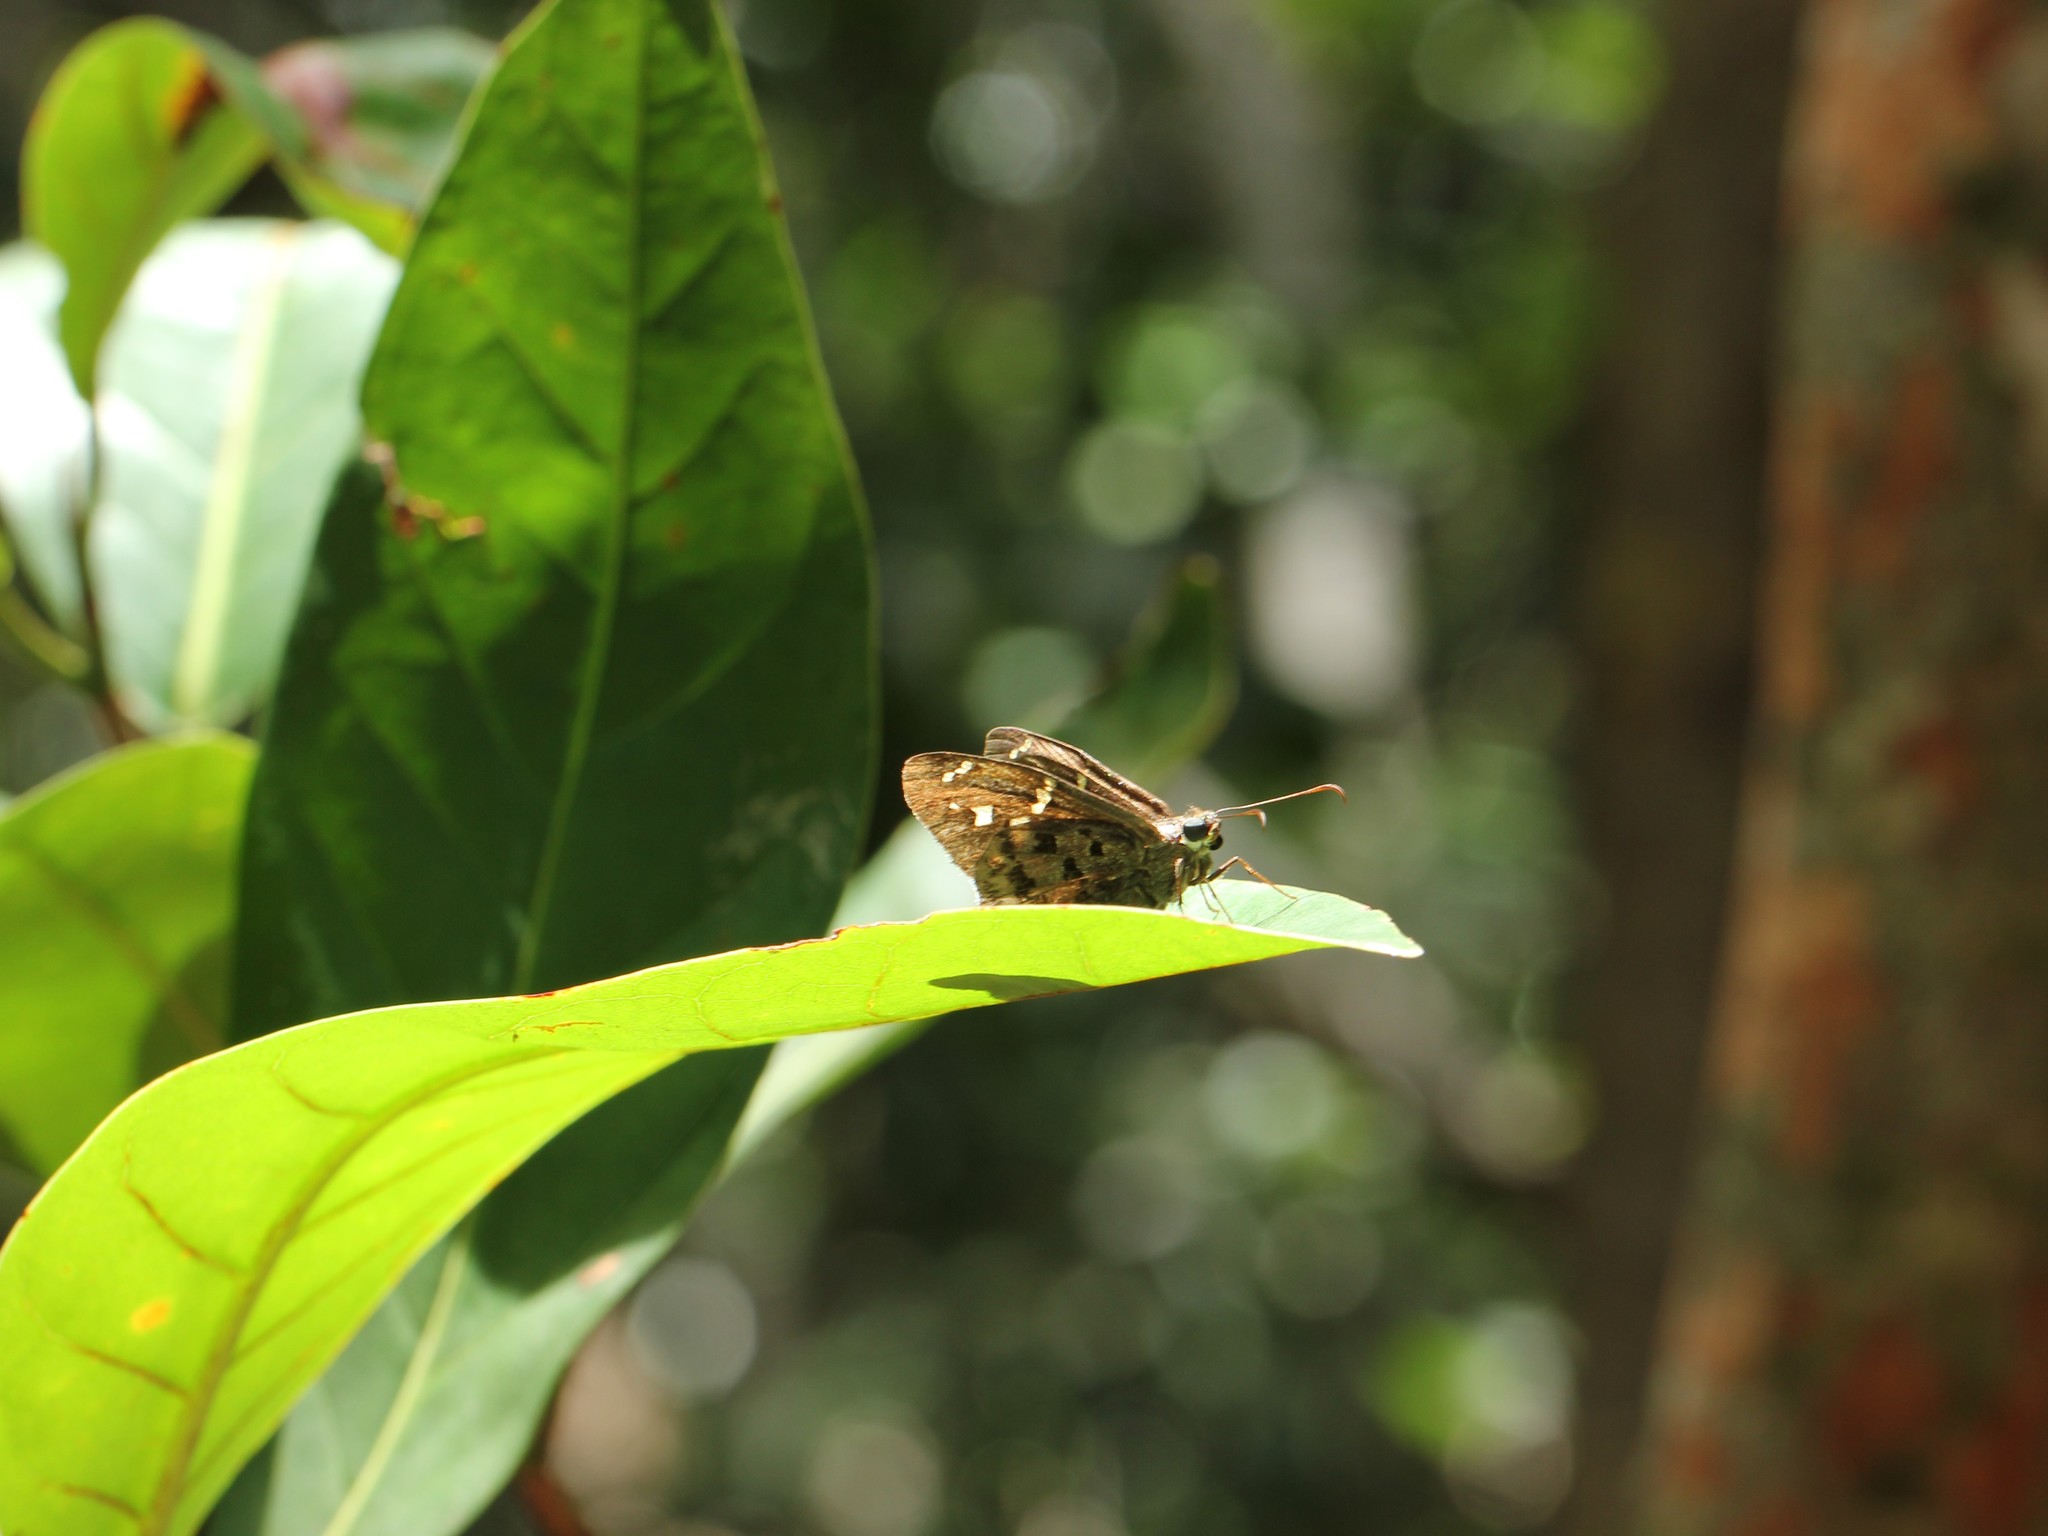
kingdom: Animalia
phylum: Arthropoda
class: Insecta
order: Lepidoptera
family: Hesperiidae
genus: Thorybes
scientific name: Thorybes
